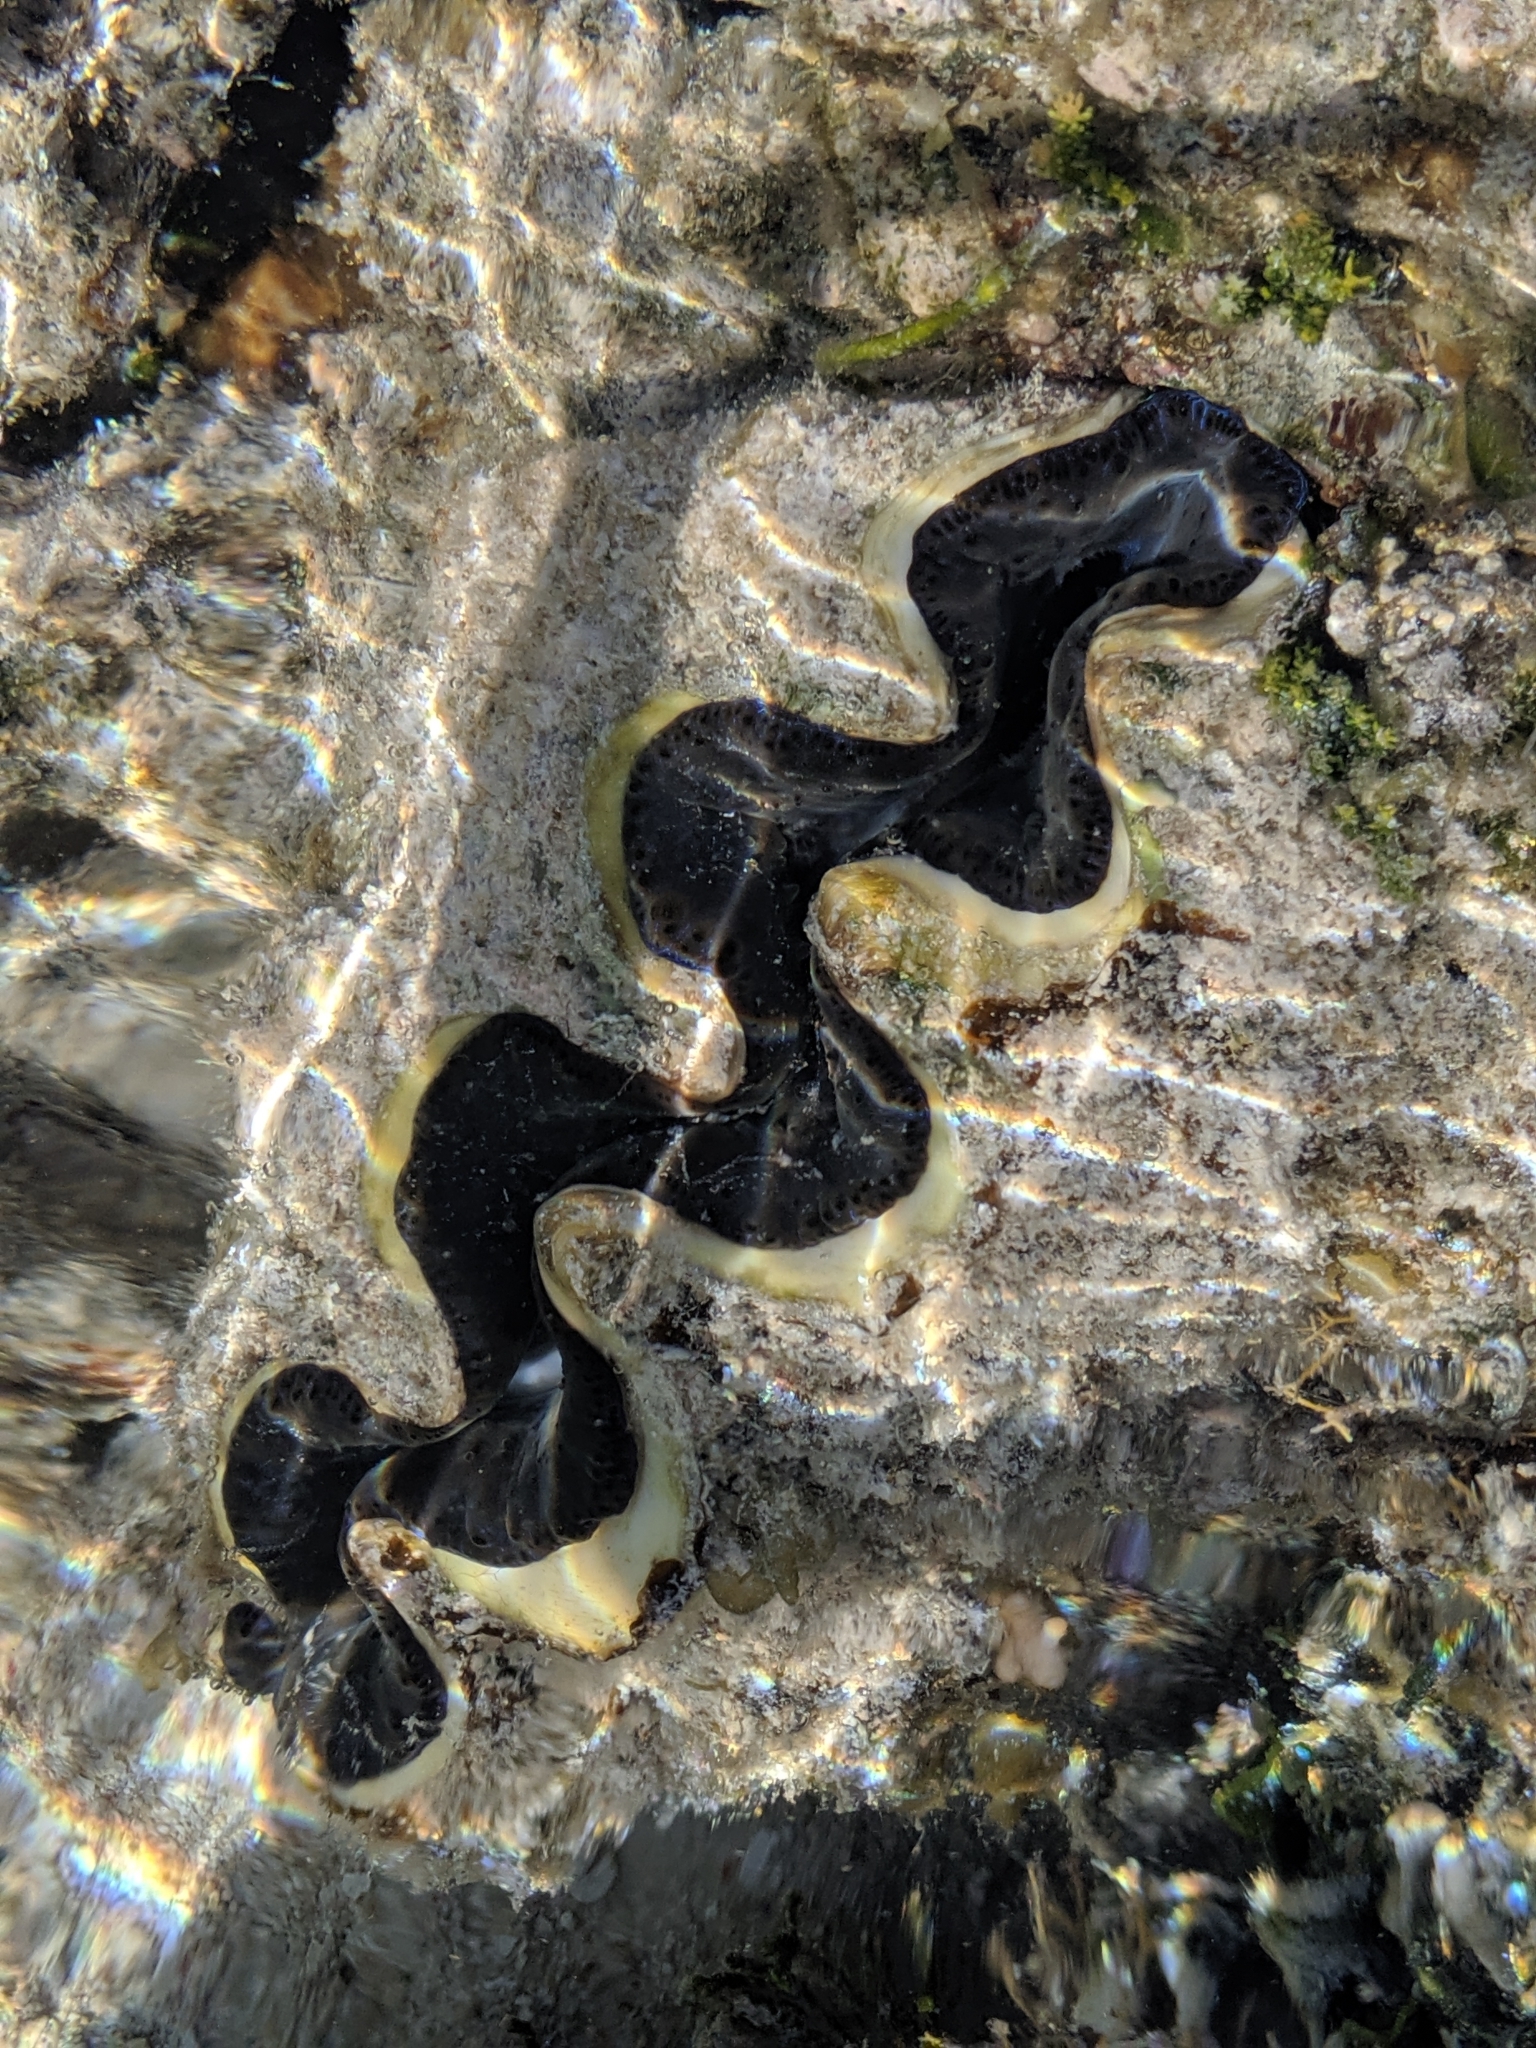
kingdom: Animalia
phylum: Mollusca
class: Bivalvia
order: Cardiida
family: Cardiidae
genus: Tridacna
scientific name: Tridacna maxima
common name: Small giant clam
